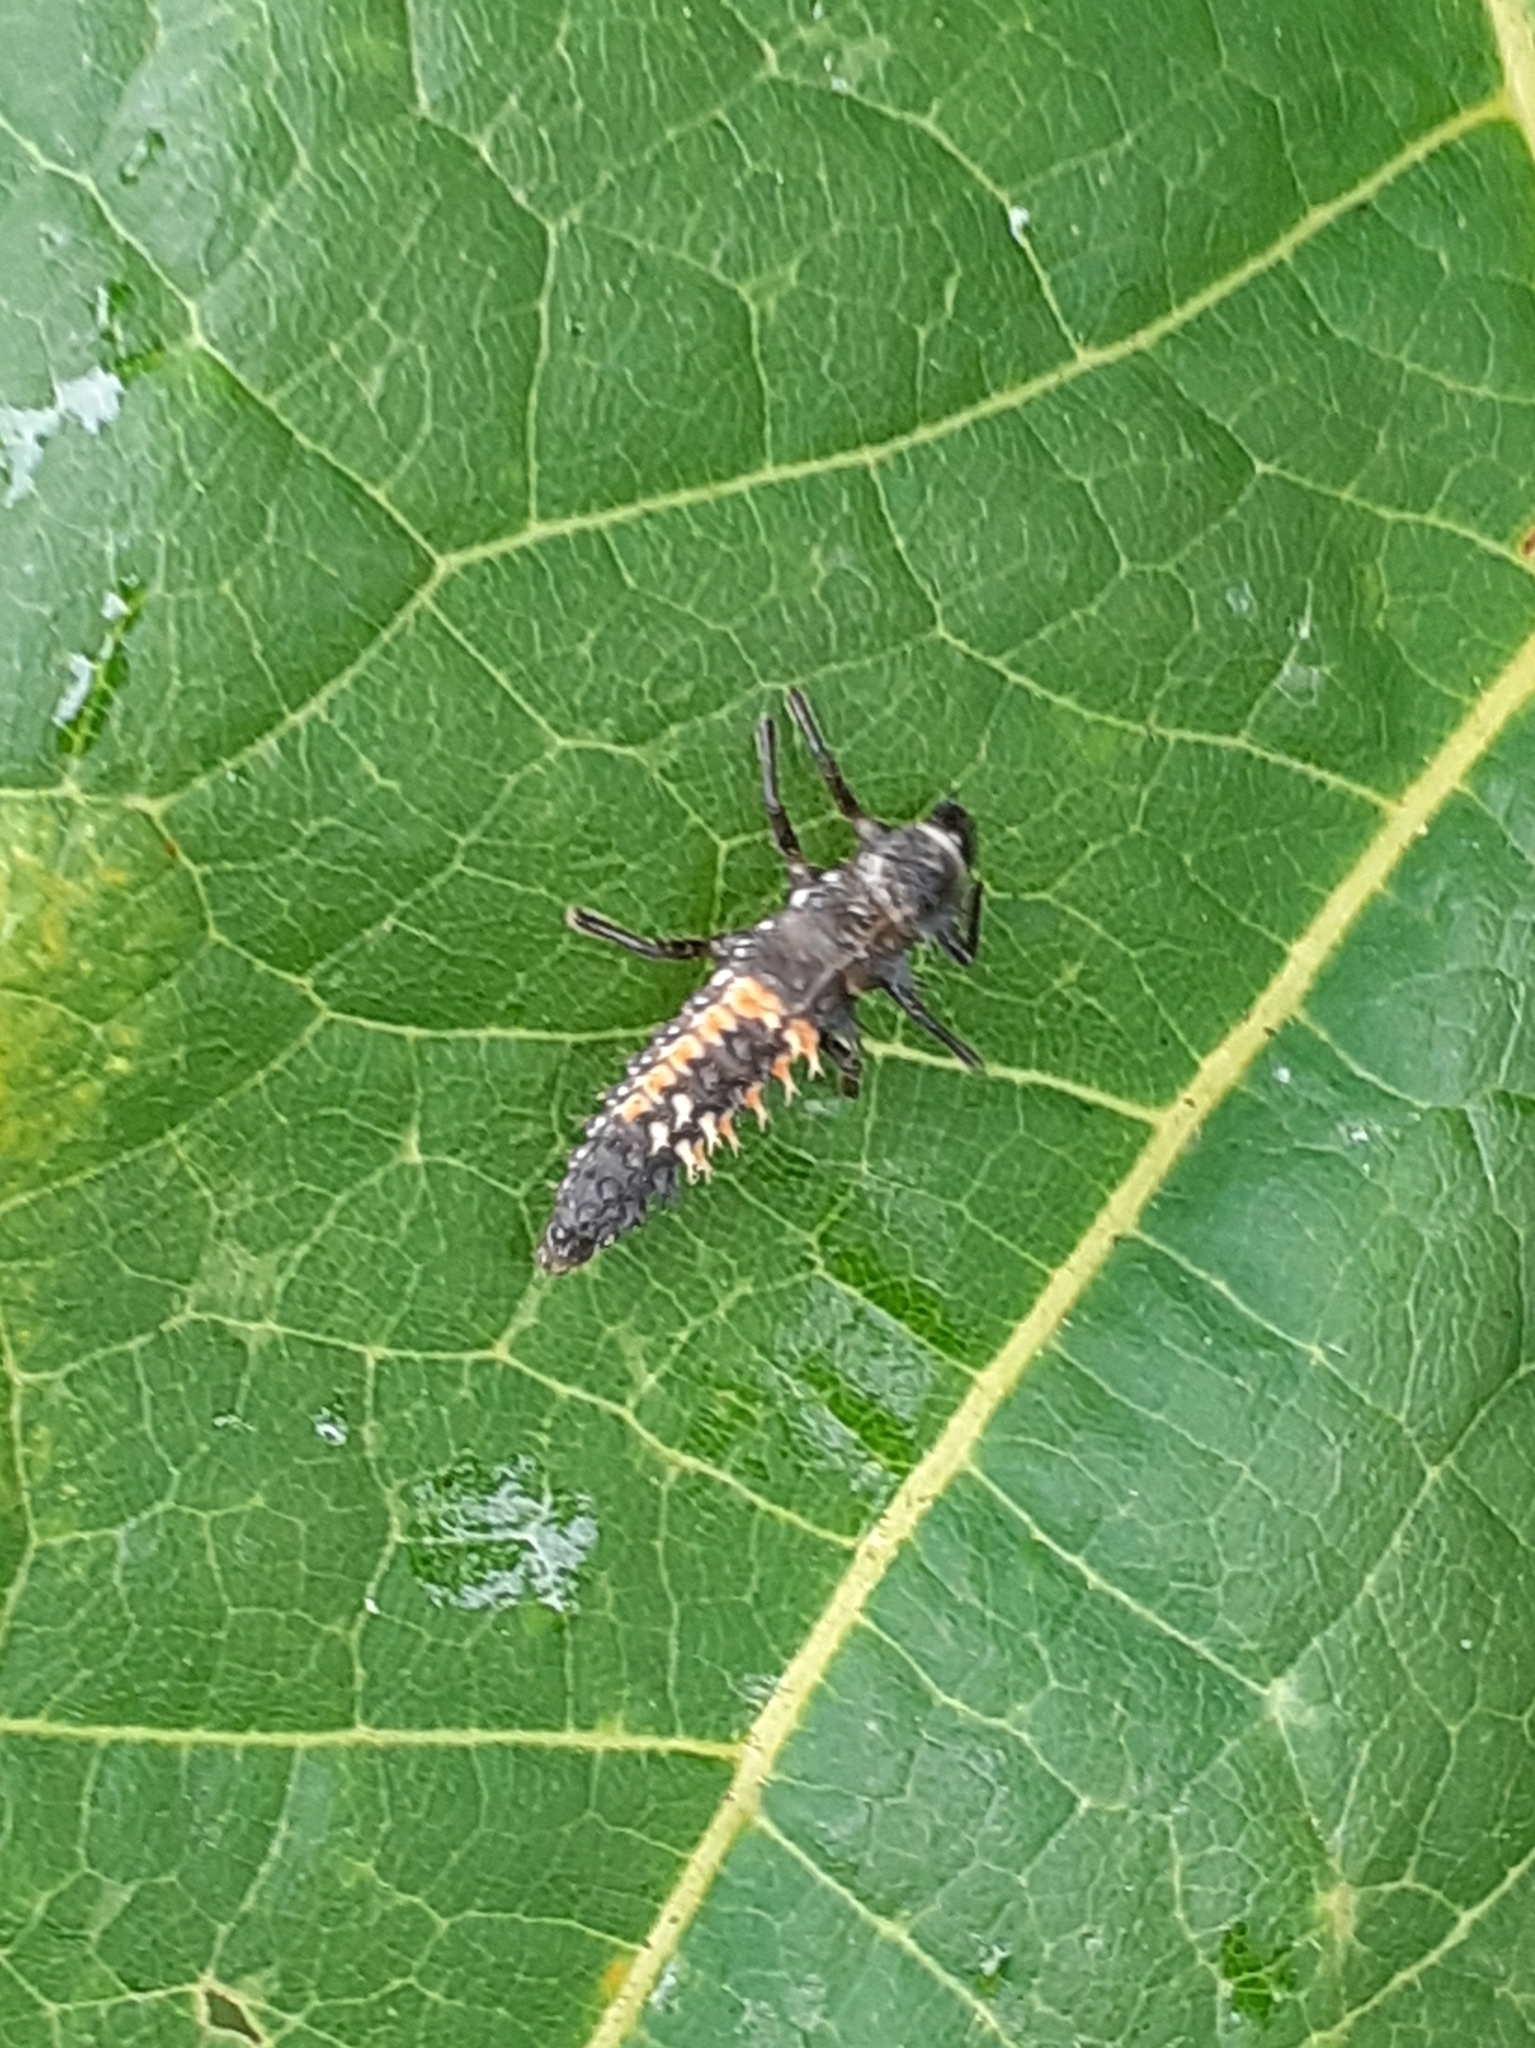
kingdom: Animalia
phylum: Arthropoda
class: Insecta
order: Coleoptera
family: Coccinellidae
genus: Harmonia
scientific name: Harmonia axyridis
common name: Harlequin ladybird
